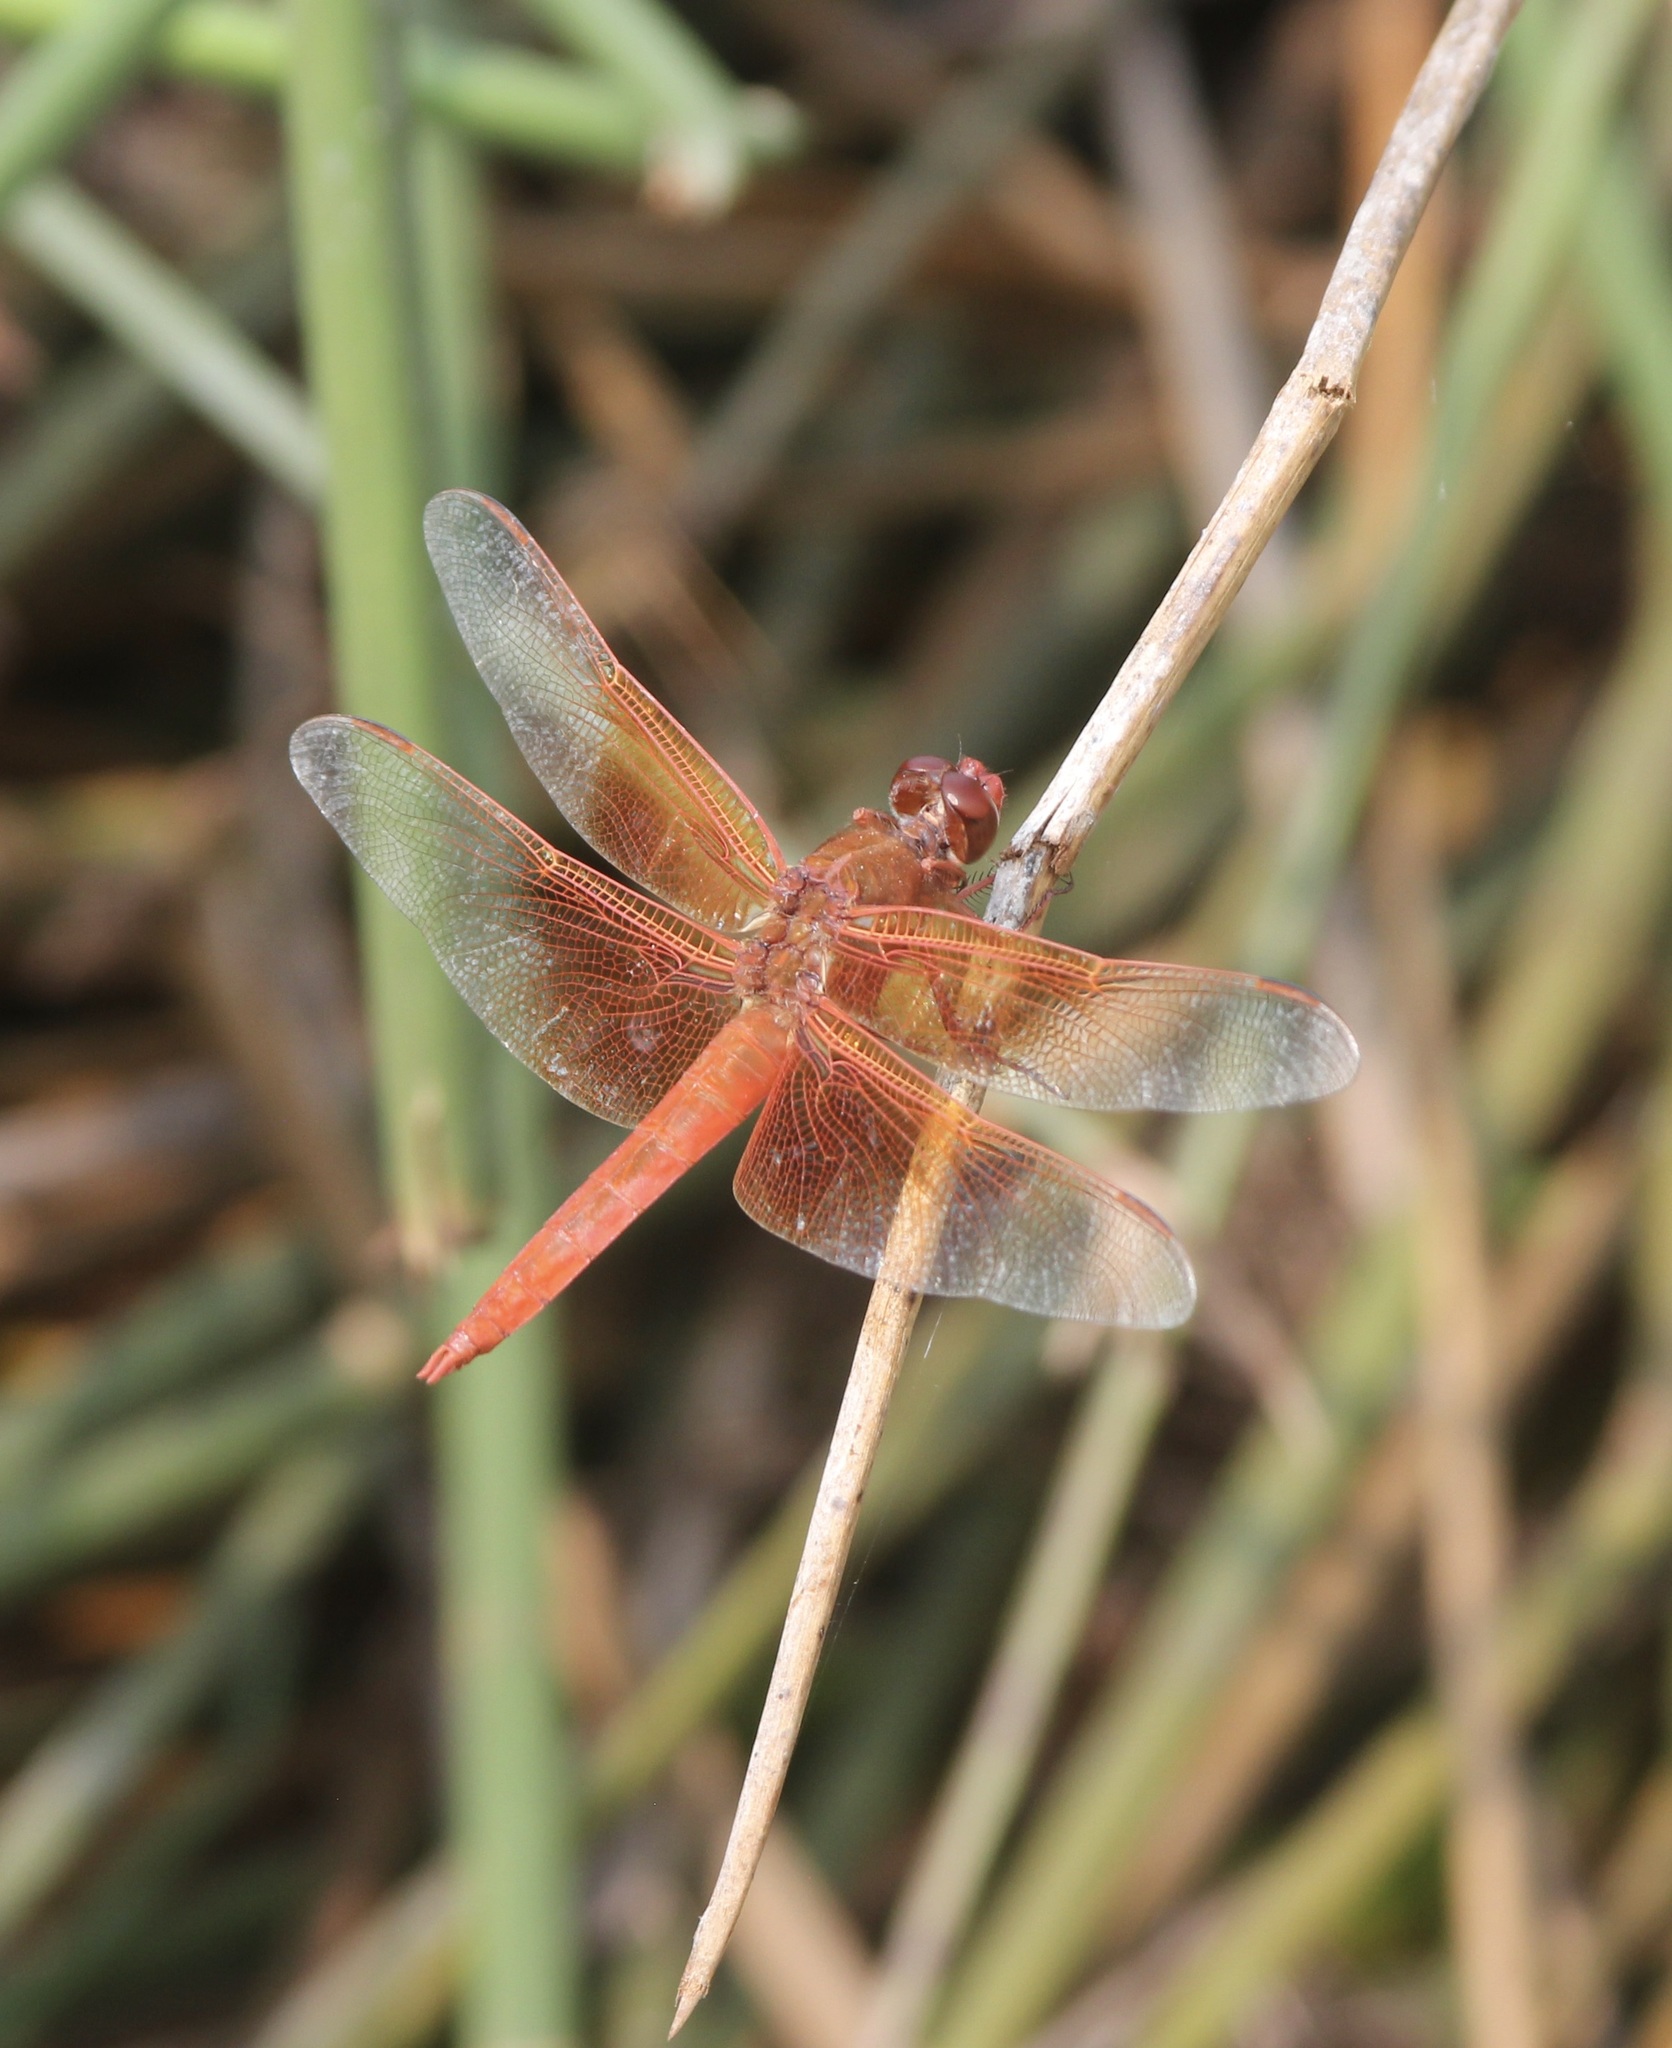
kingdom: Animalia
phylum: Arthropoda
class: Insecta
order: Odonata
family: Libellulidae
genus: Libellula
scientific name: Libellula saturata
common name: Flame skimmer
